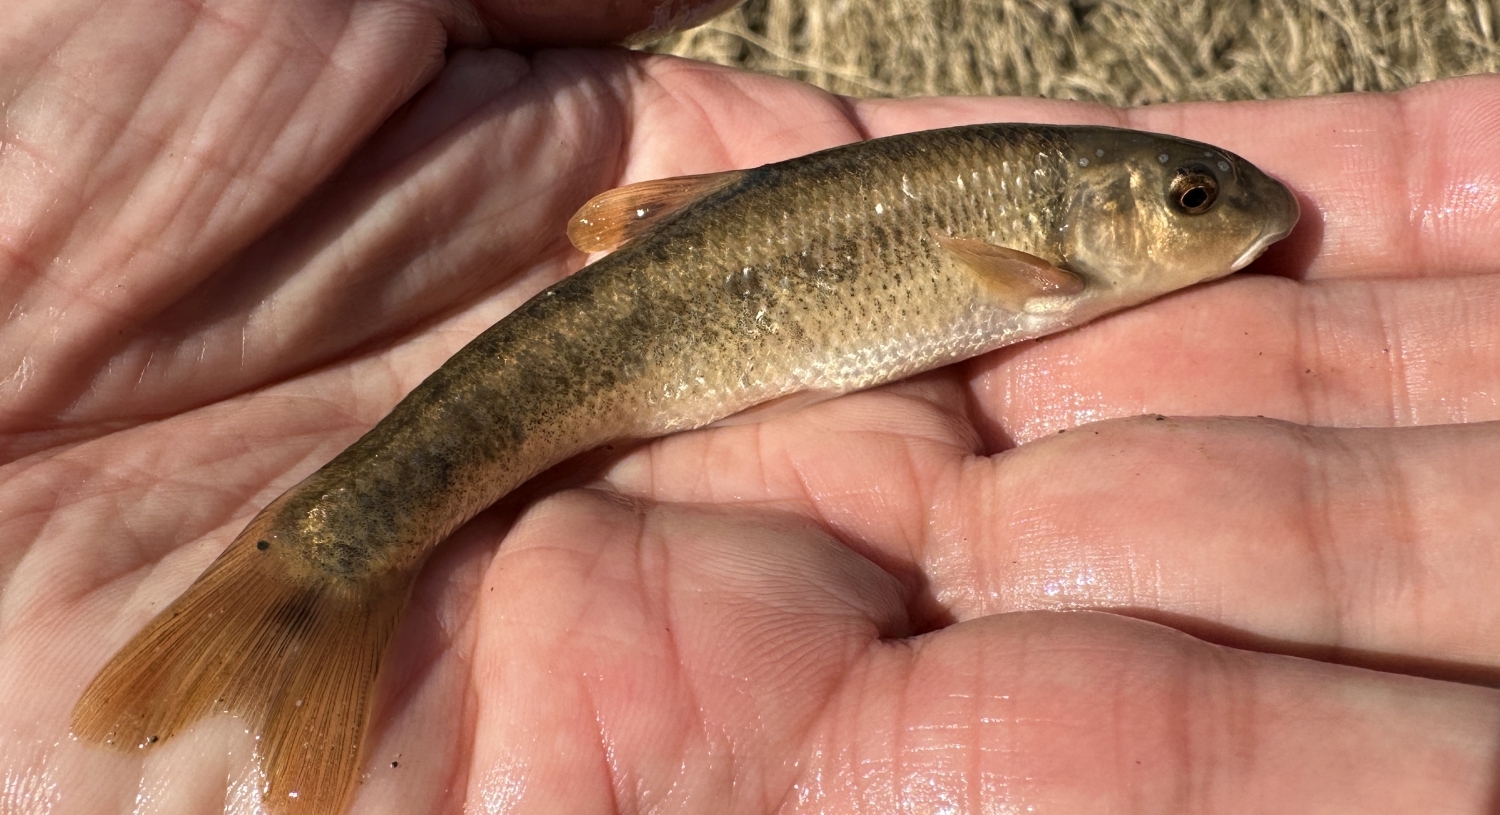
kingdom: Animalia
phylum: Chordata
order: Cypriniformes
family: Cyprinidae
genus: Campostoma
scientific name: Campostoma anomalum
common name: Central stoneroller
